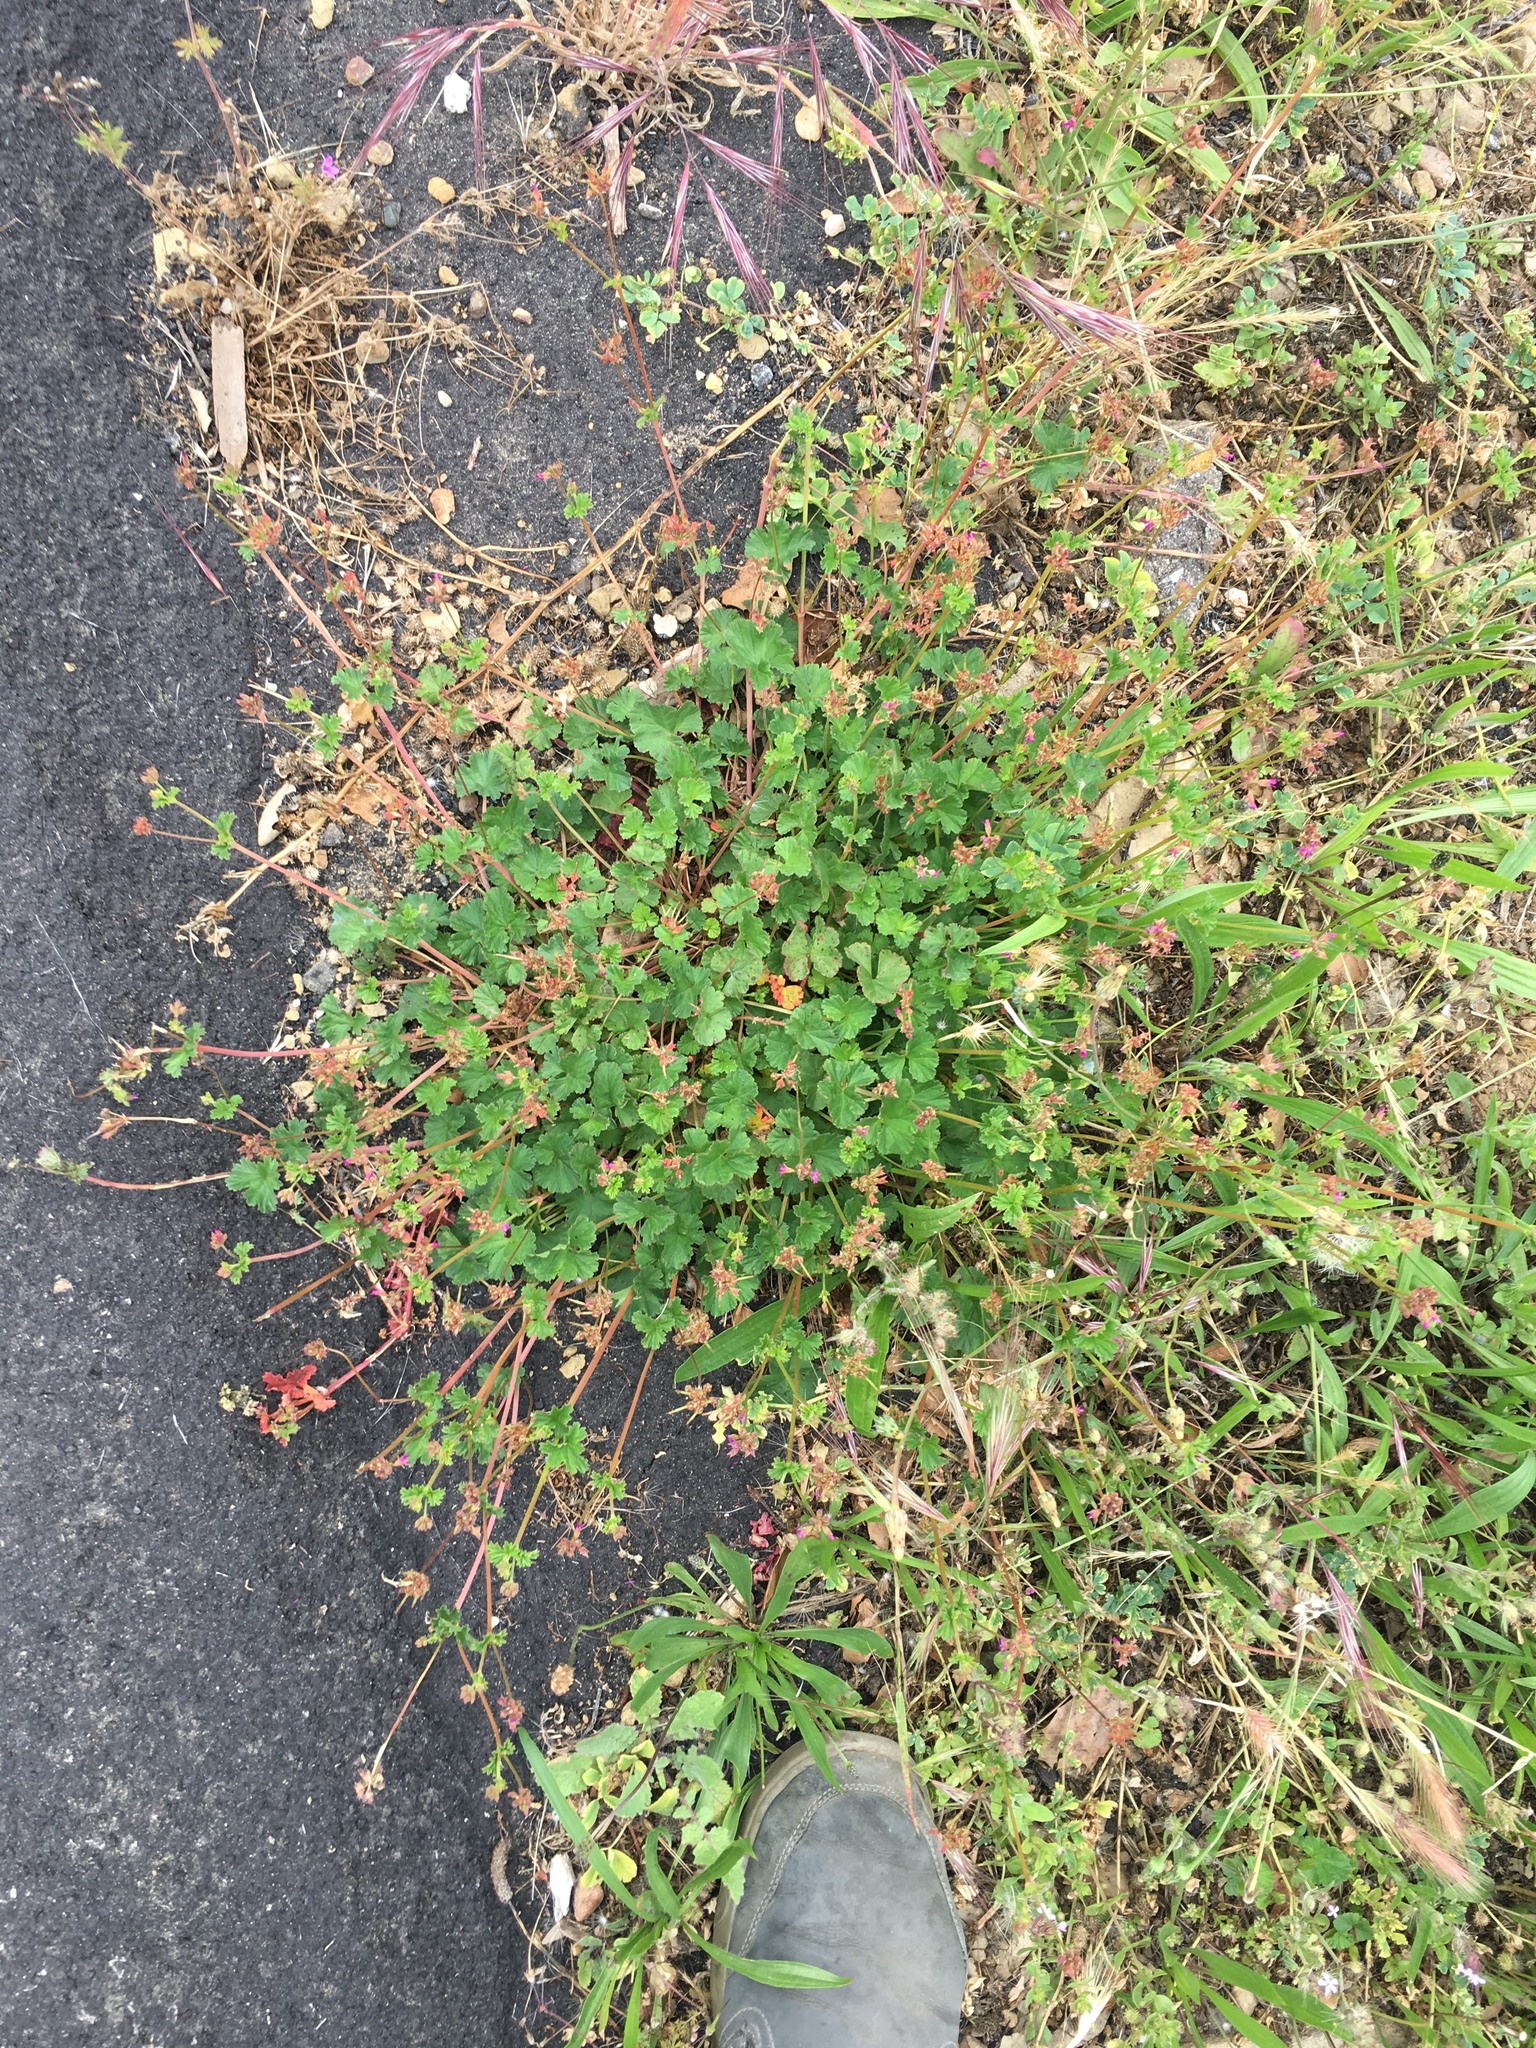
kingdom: Plantae
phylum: Tracheophyta
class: Magnoliopsida
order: Geraniales
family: Geraniaceae
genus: Pelargonium
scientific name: Pelargonium grossularioides
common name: Gooseberry geranium
